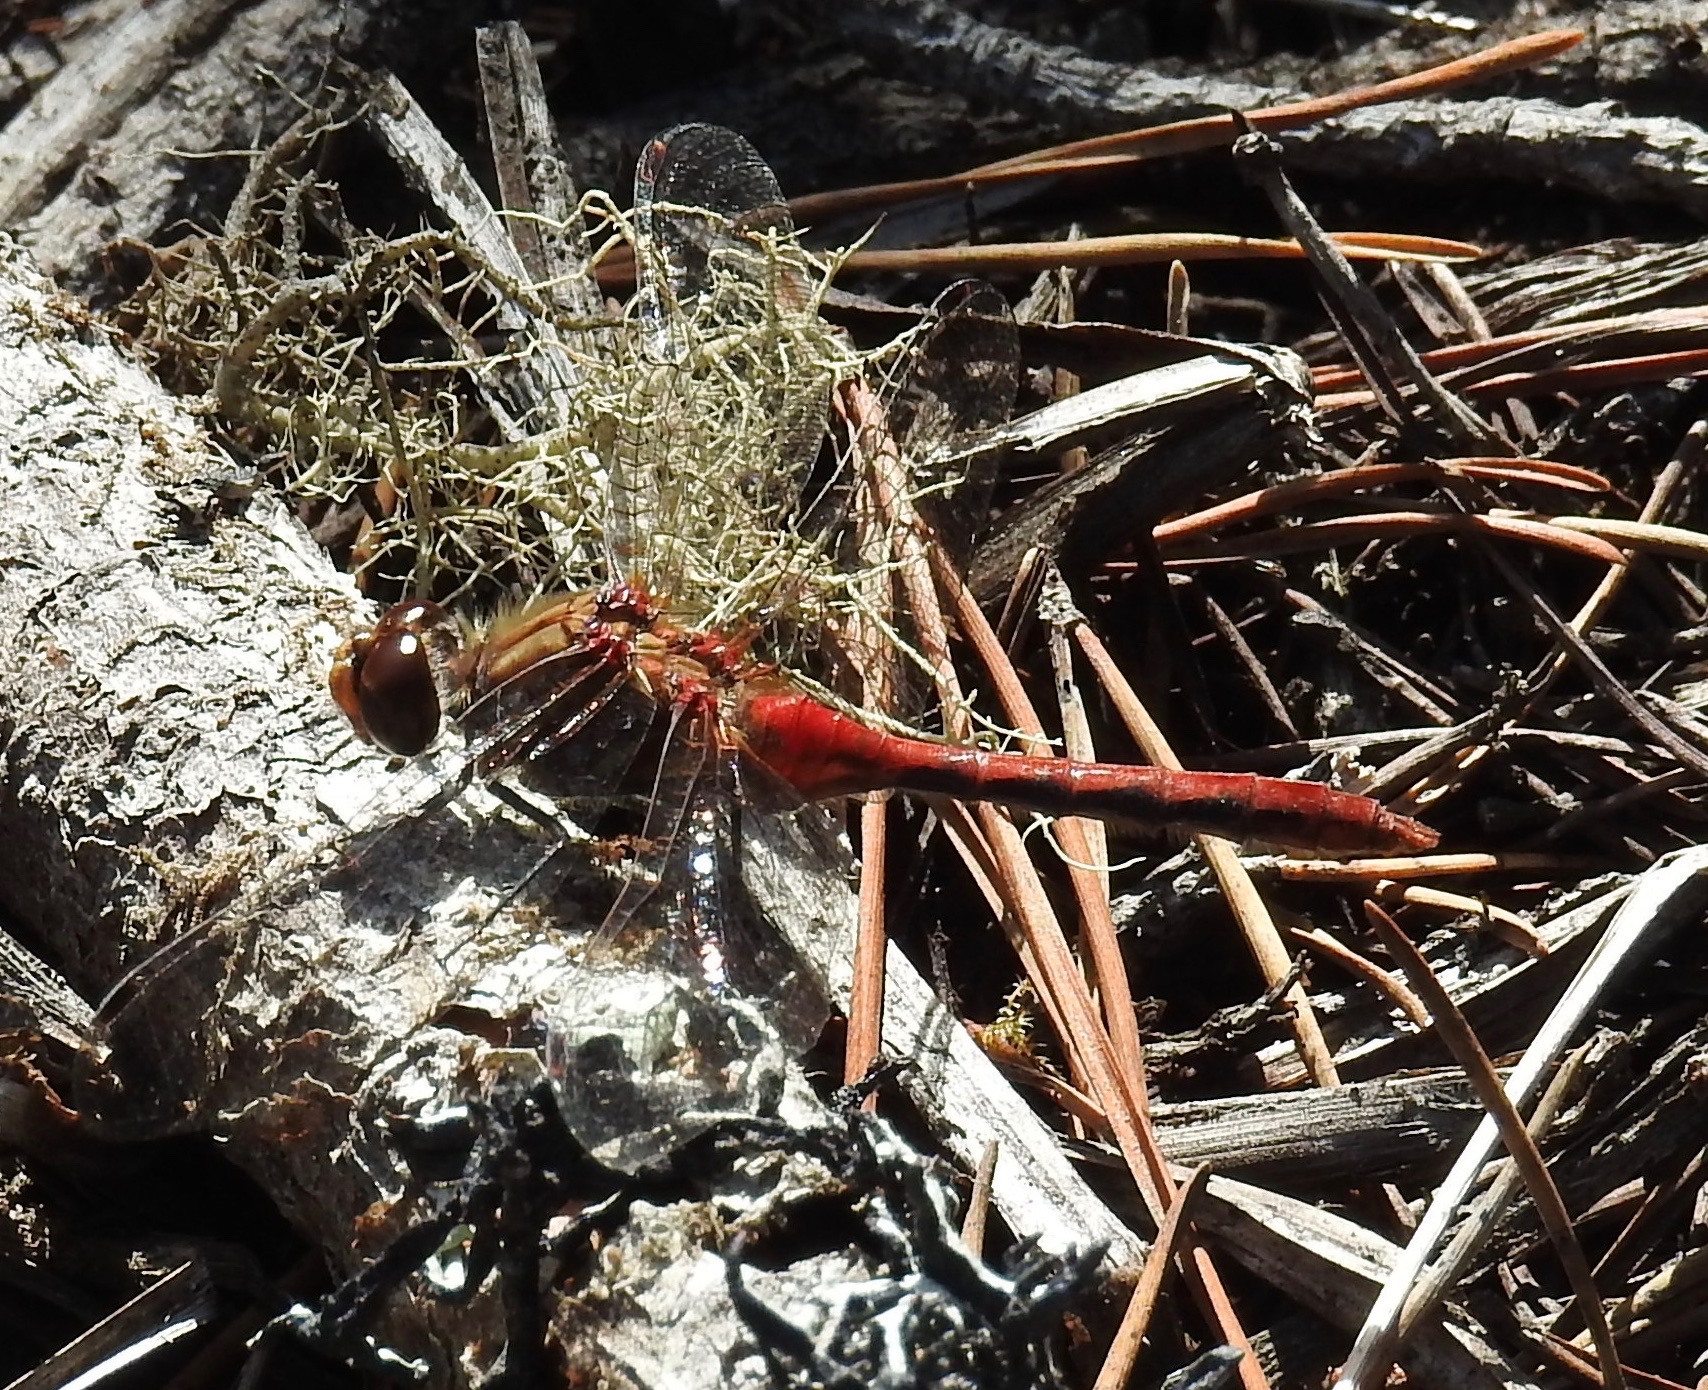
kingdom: Animalia
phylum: Arthropoda
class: Insecta
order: Odonata
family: Libellulidae
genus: Sympetrum
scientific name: Sympetrum pallipes
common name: Striped meadowhawk
